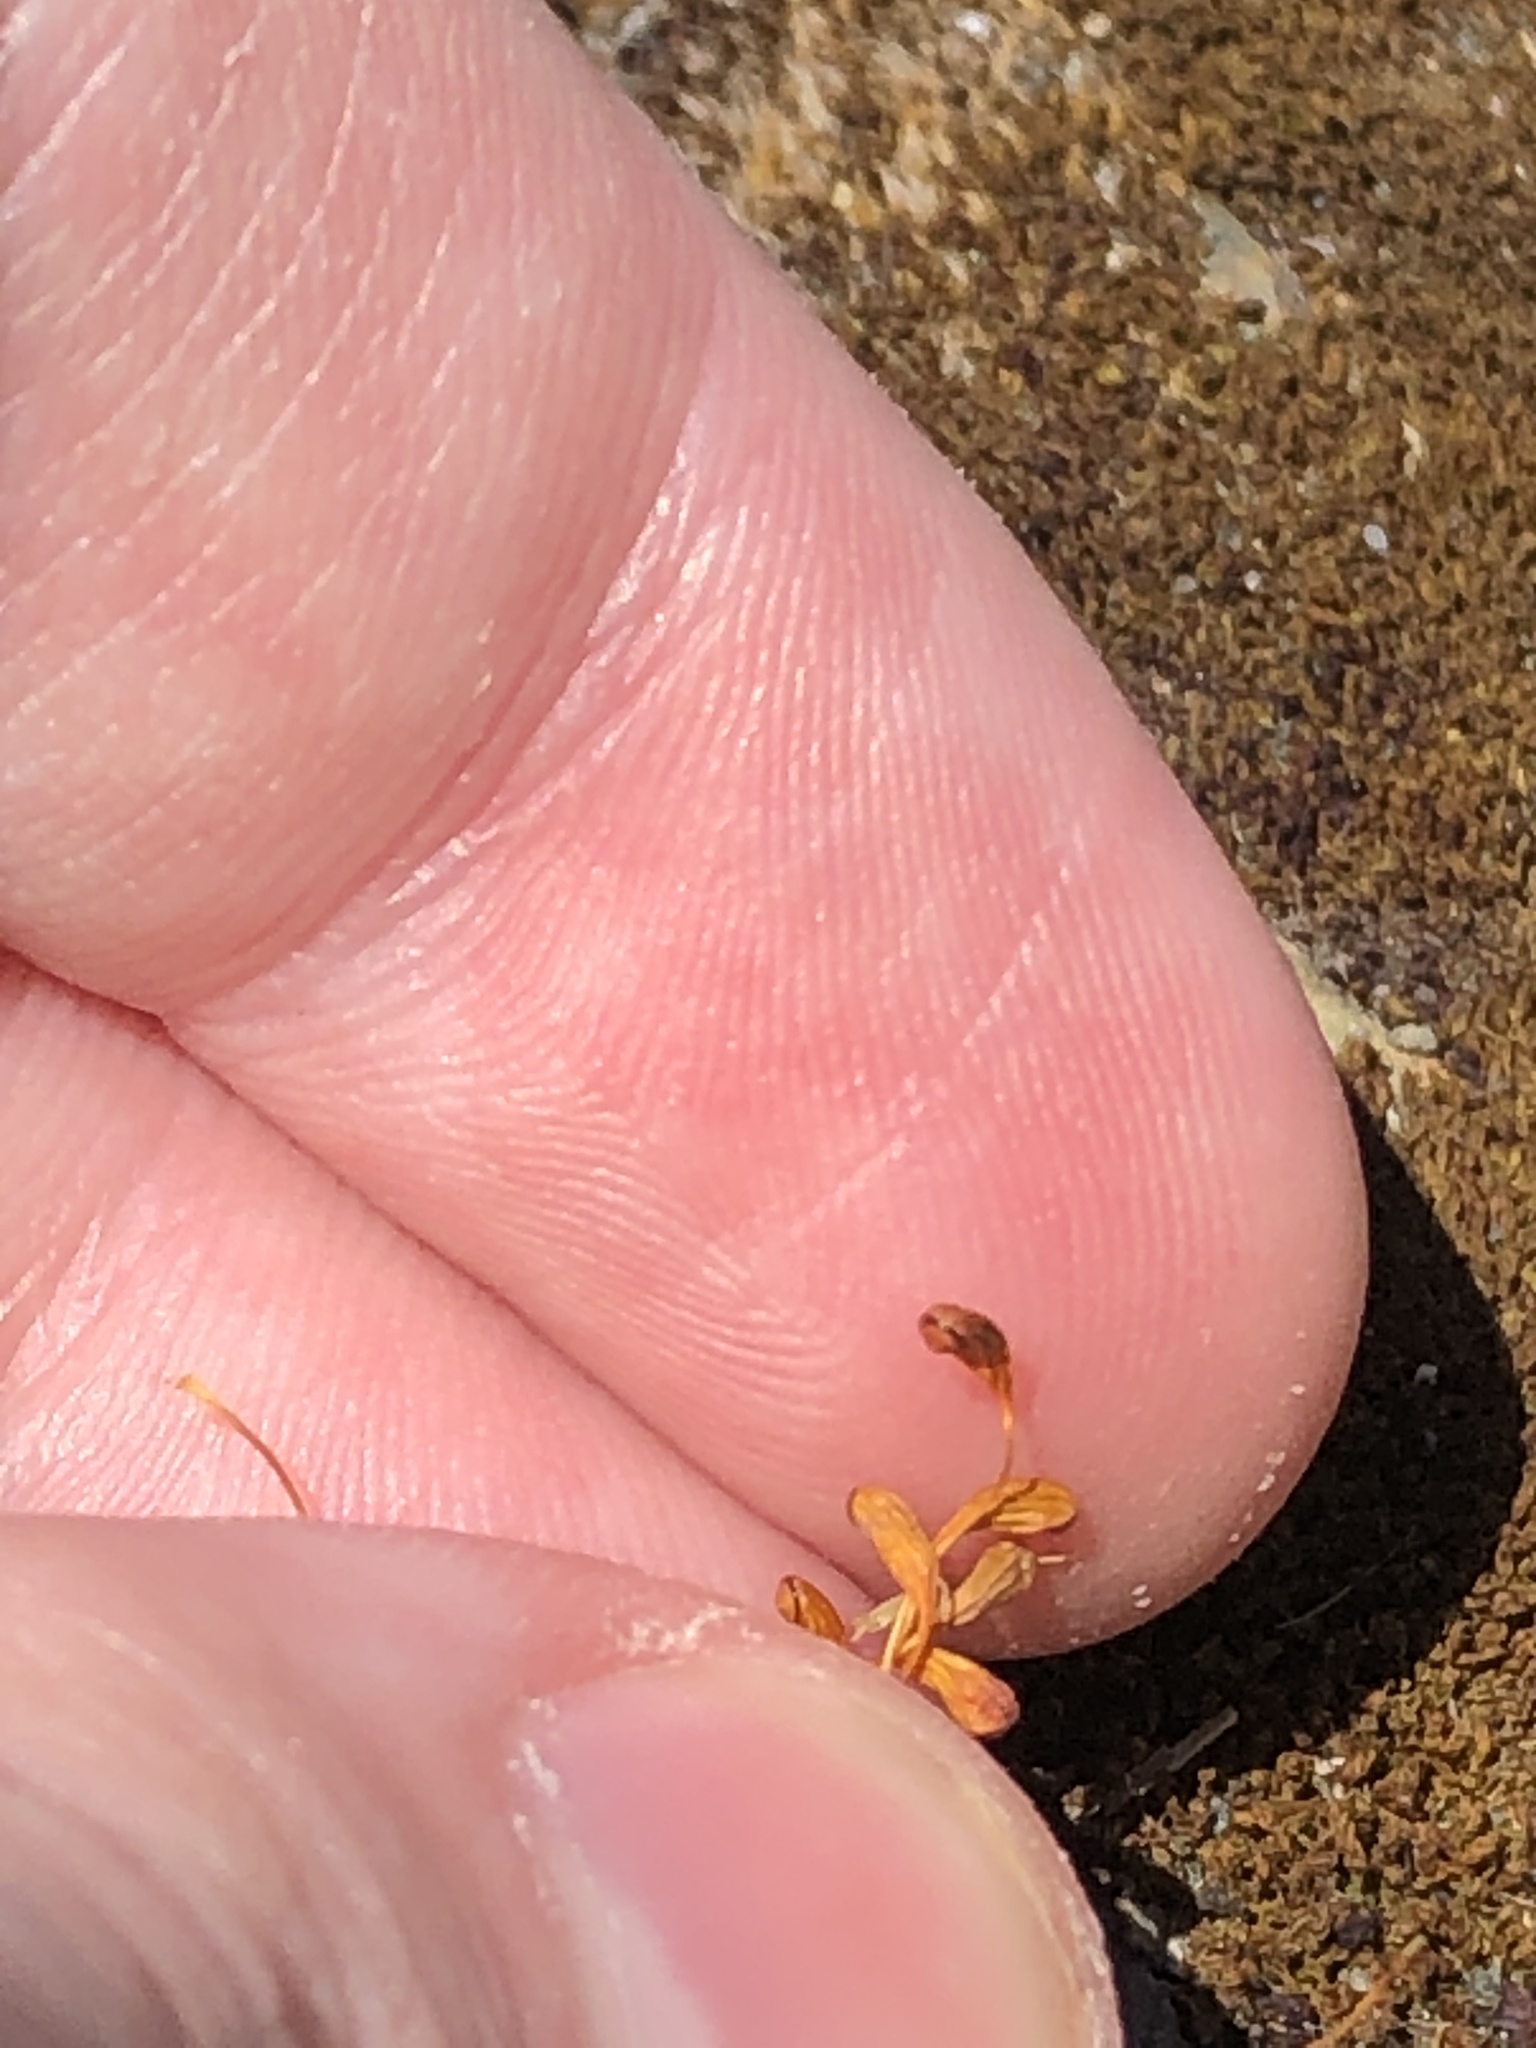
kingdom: Plantae
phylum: Bryophyta
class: Bryopsida
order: Funariales
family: Funariaceae
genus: Funaria
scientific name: Funaria hygrometrica
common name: Common cord moss
